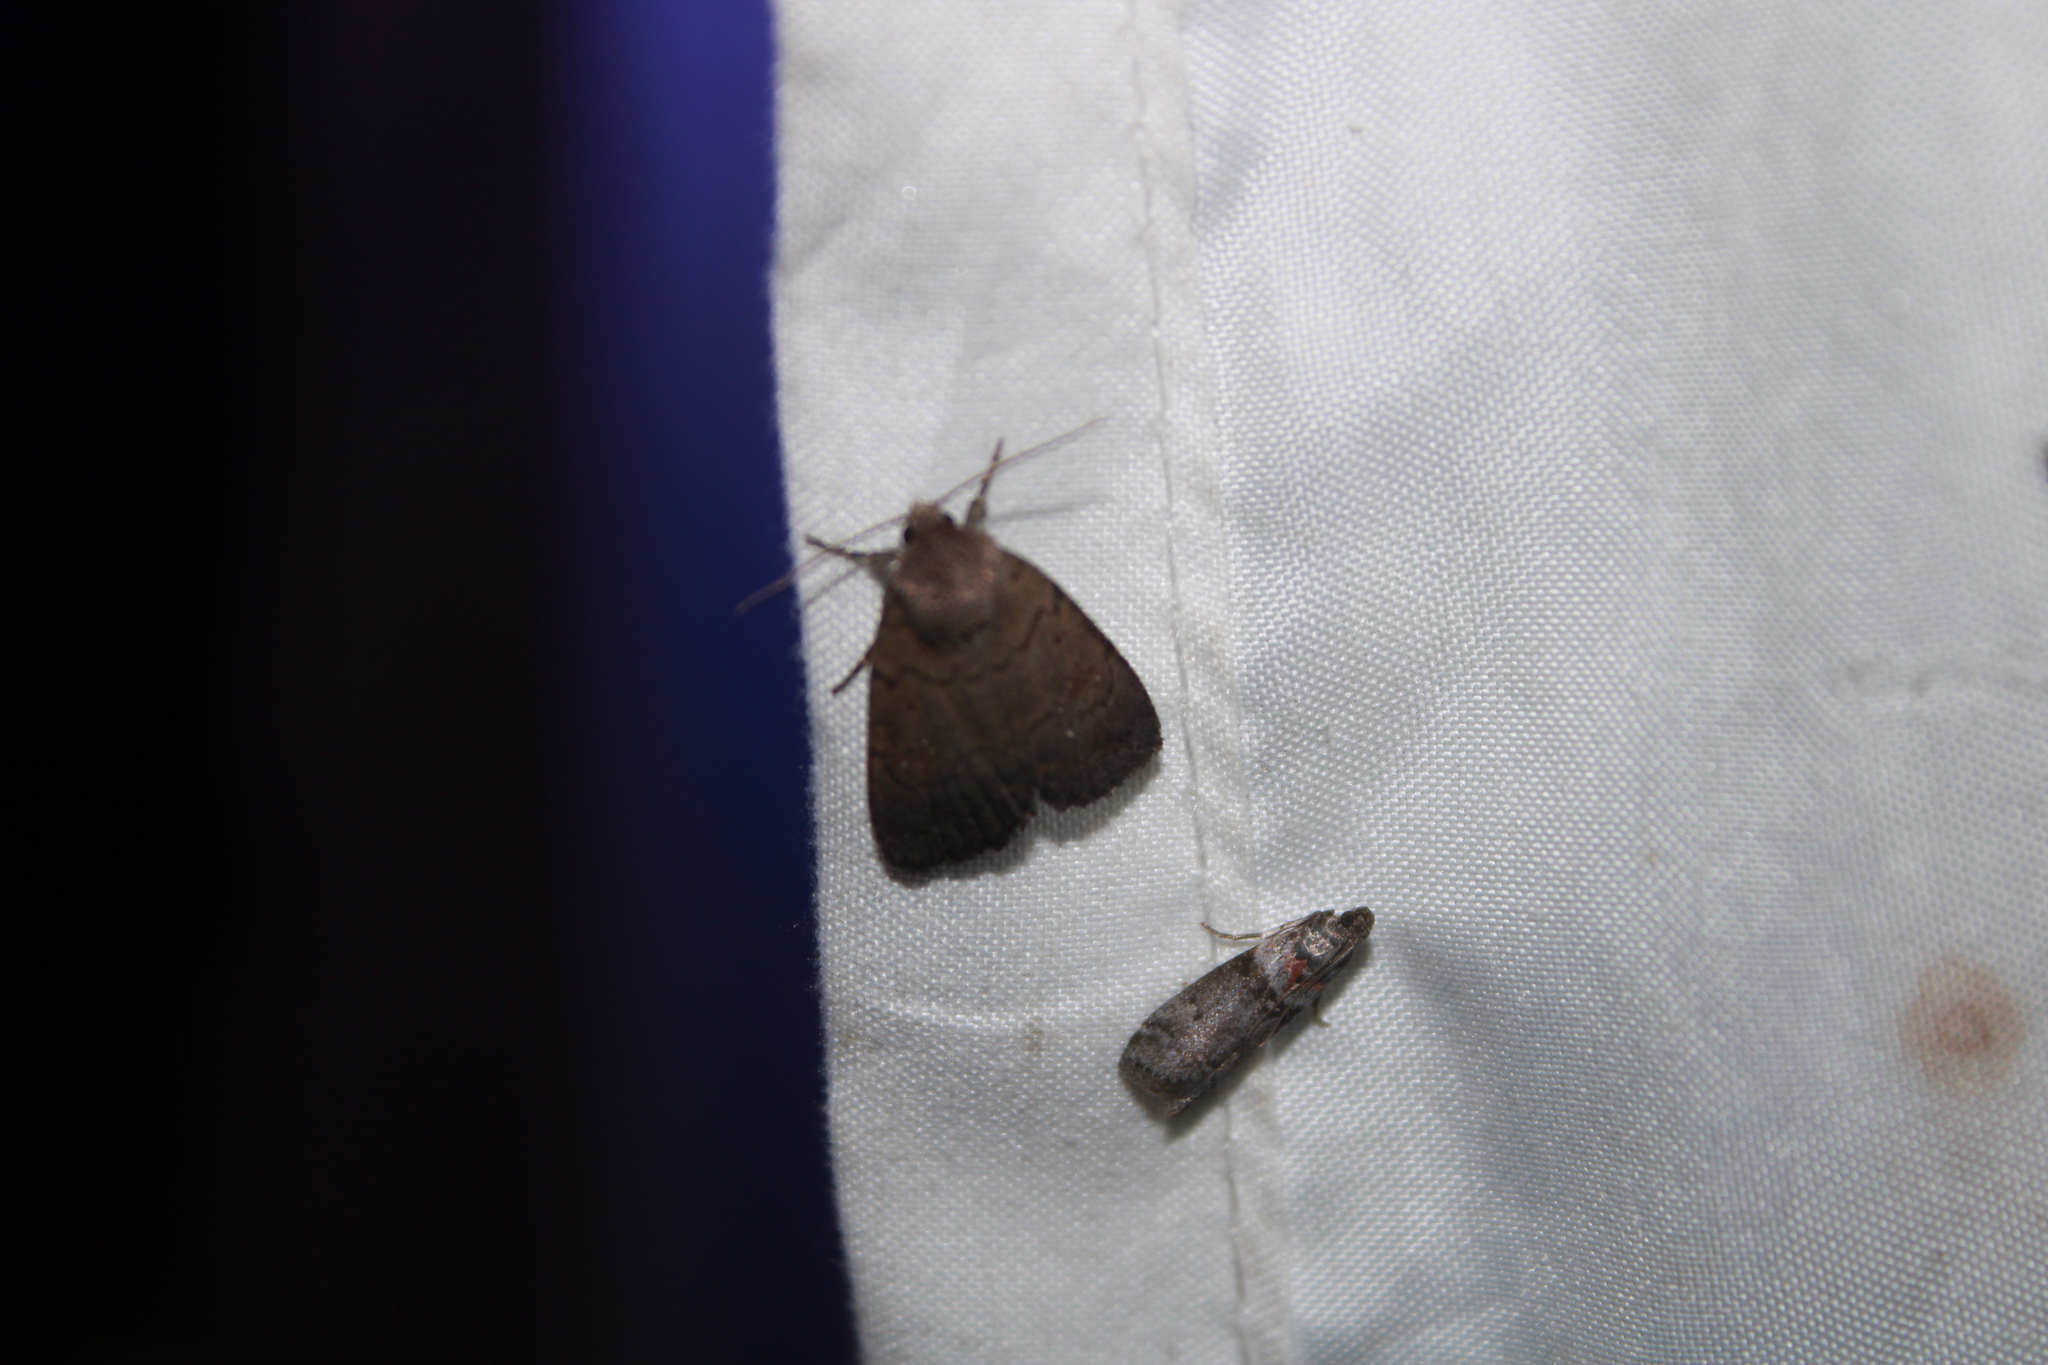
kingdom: Animalia
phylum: Arthropoda
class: Insecta
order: Lepidoptera
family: Noctuidae
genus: Athetis
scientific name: Athetis tarda
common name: Slowpoke moth
